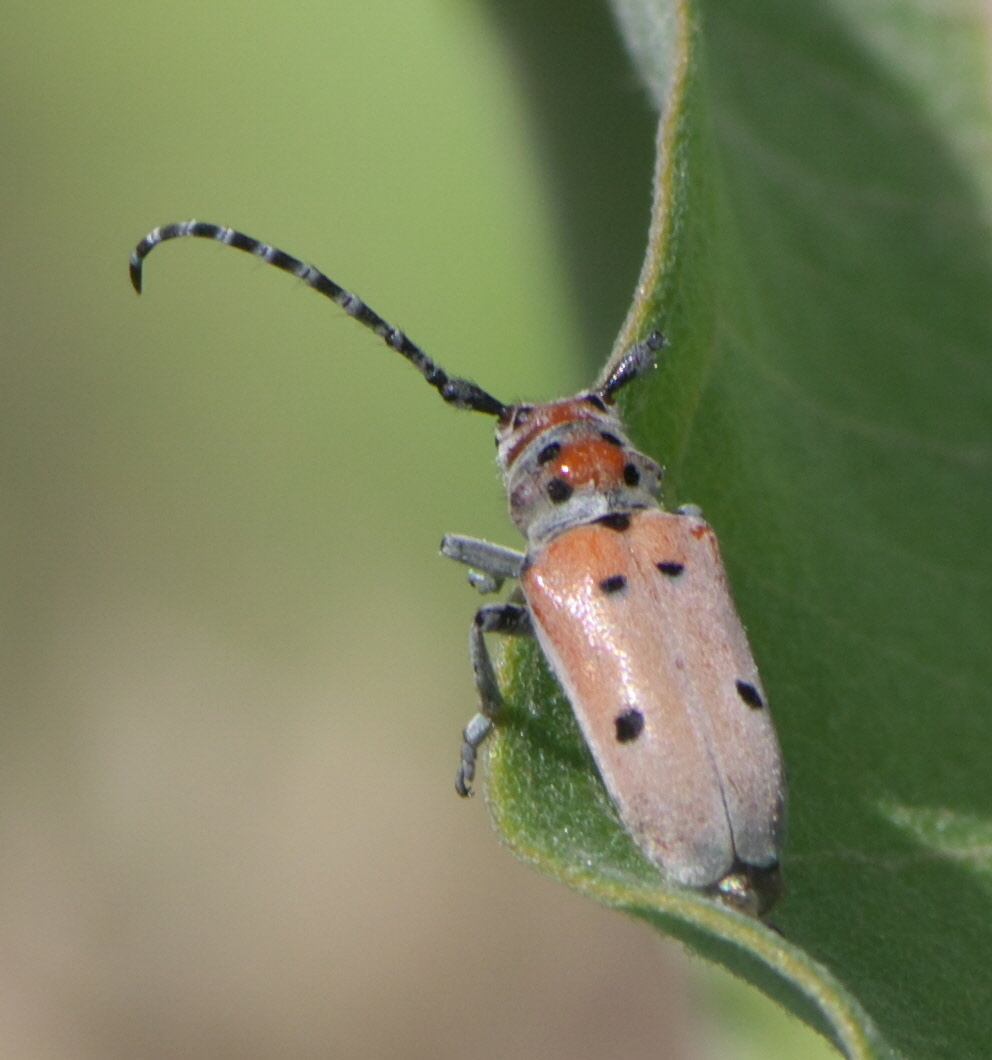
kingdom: Animalia
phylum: Arthropoda
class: Insecta
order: Coleoptera
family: Cerambycidae
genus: Tetraopes
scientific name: Tetraopes annulatus
